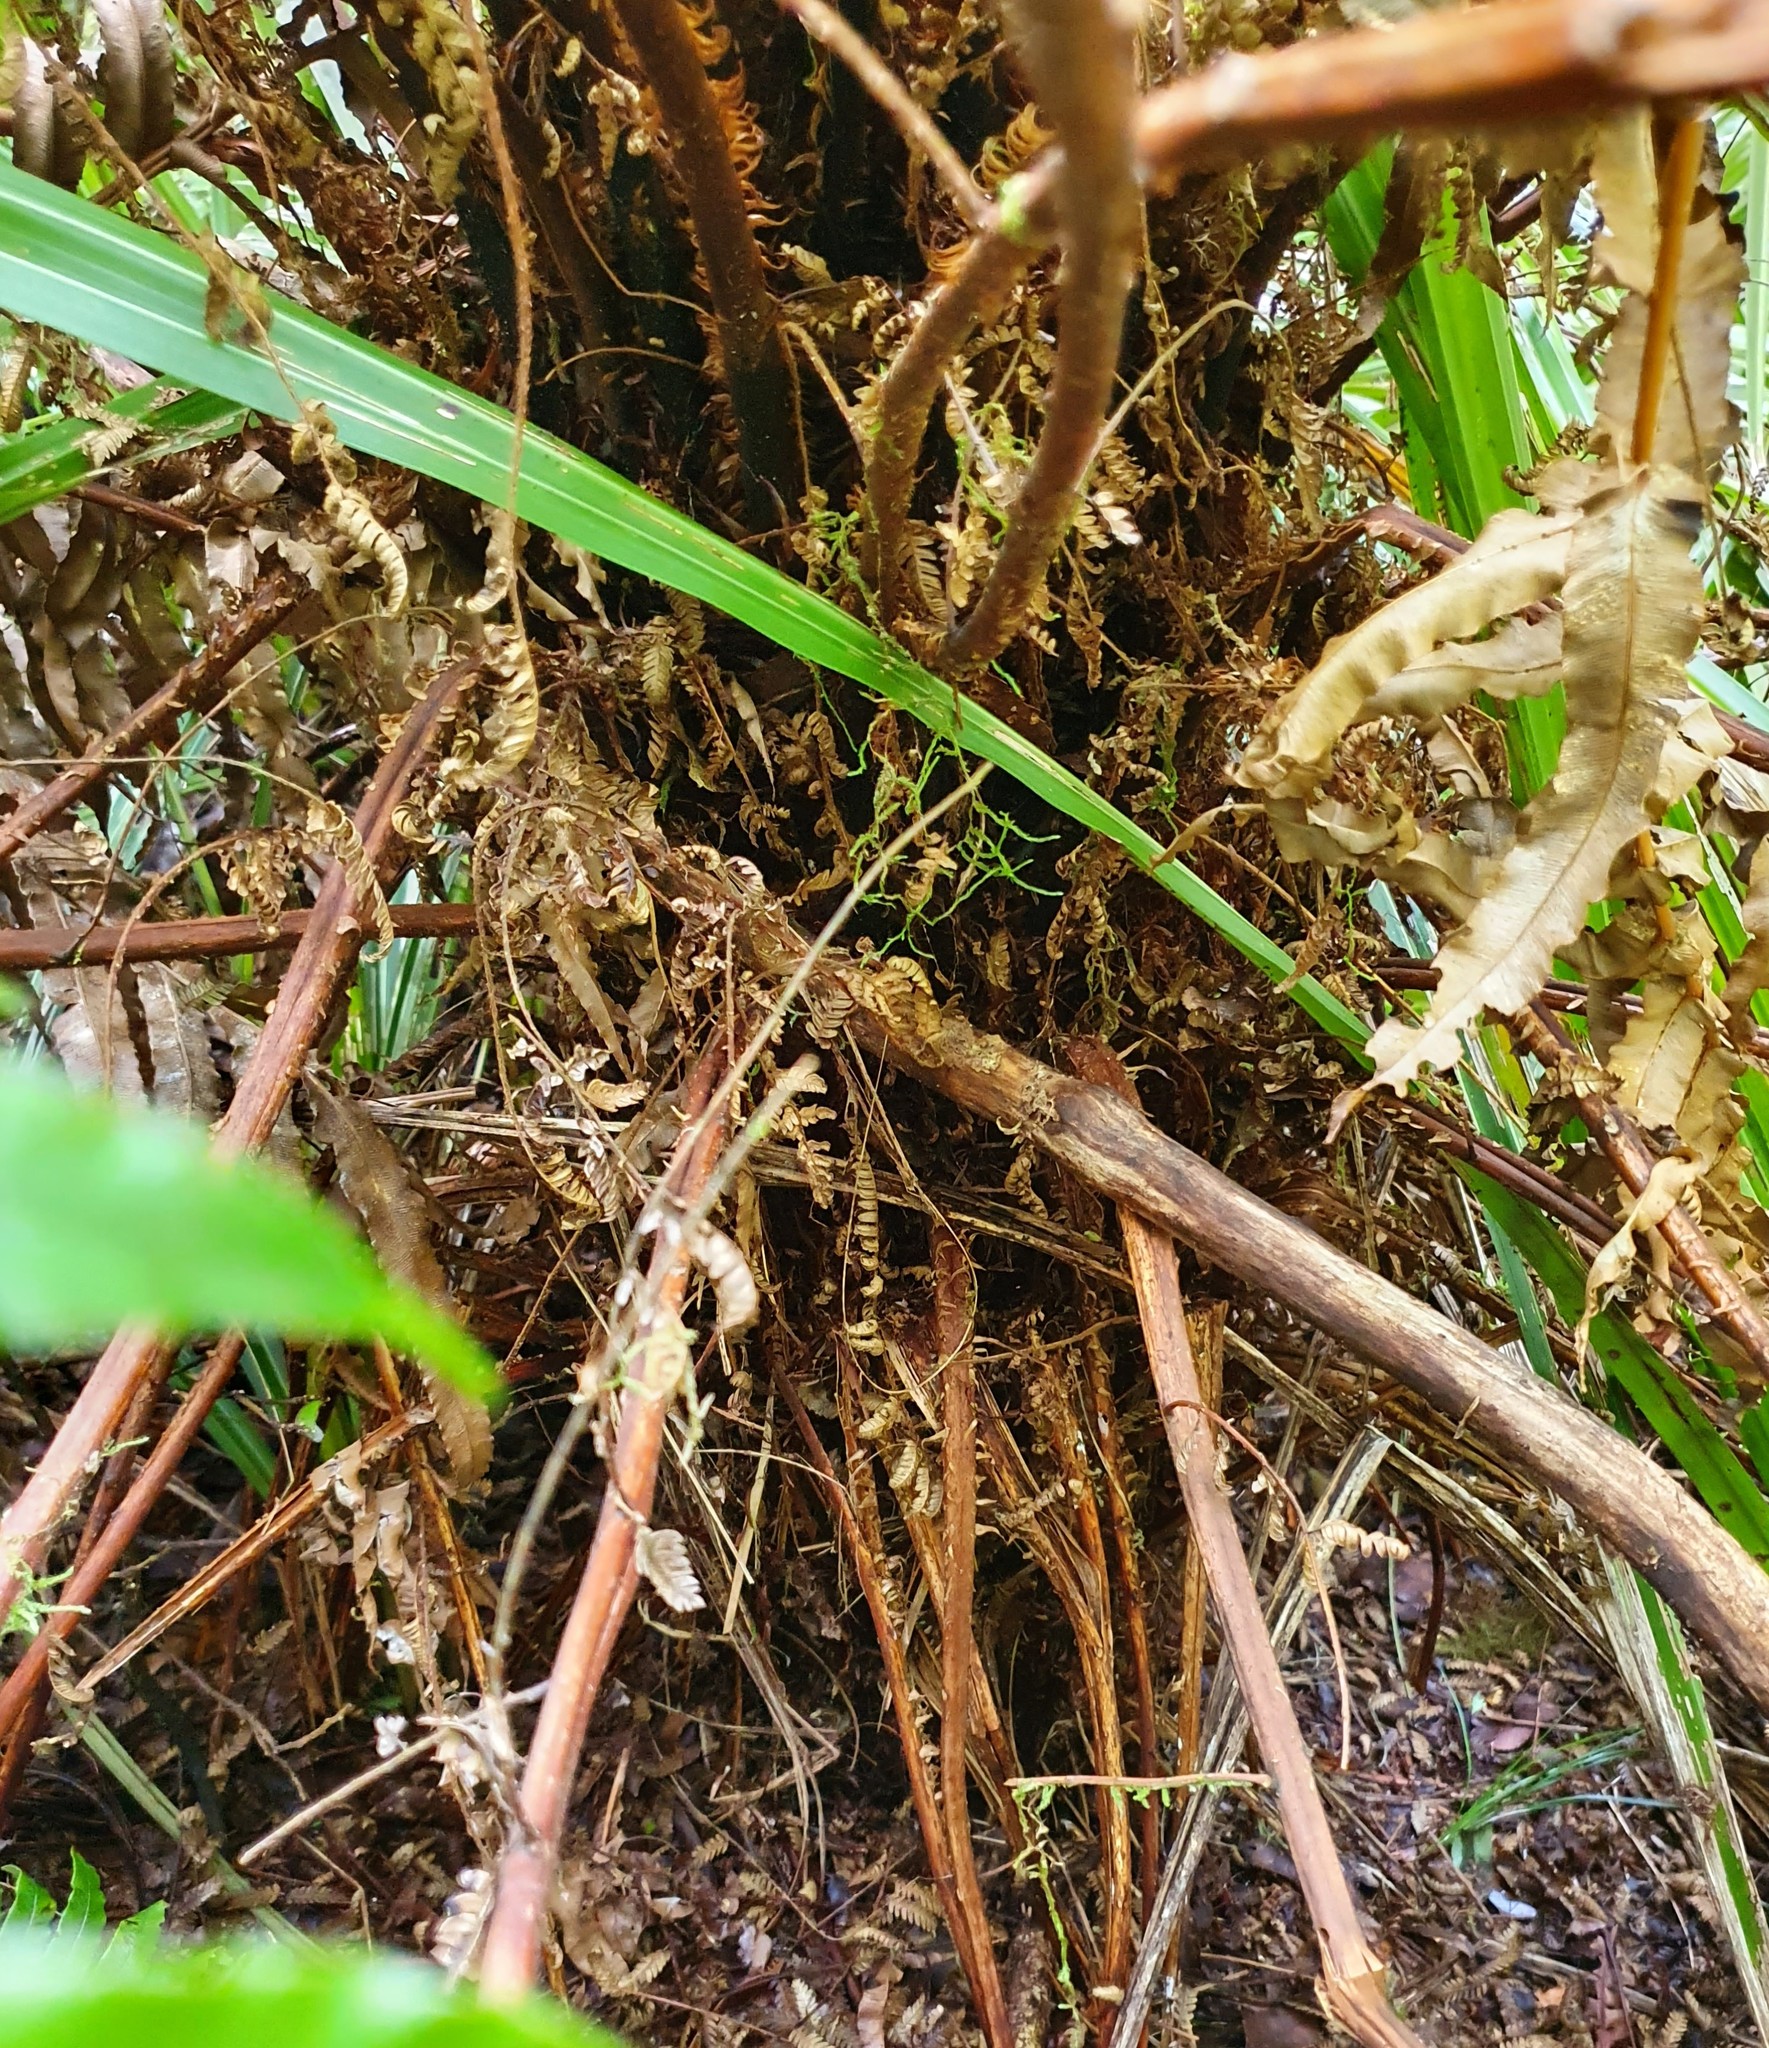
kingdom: Plantae
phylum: Tracheophyta
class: Polypodiopsida
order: Cyatheales
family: Cyatheaceae
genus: Alsophila
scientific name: Alsophila smithii
